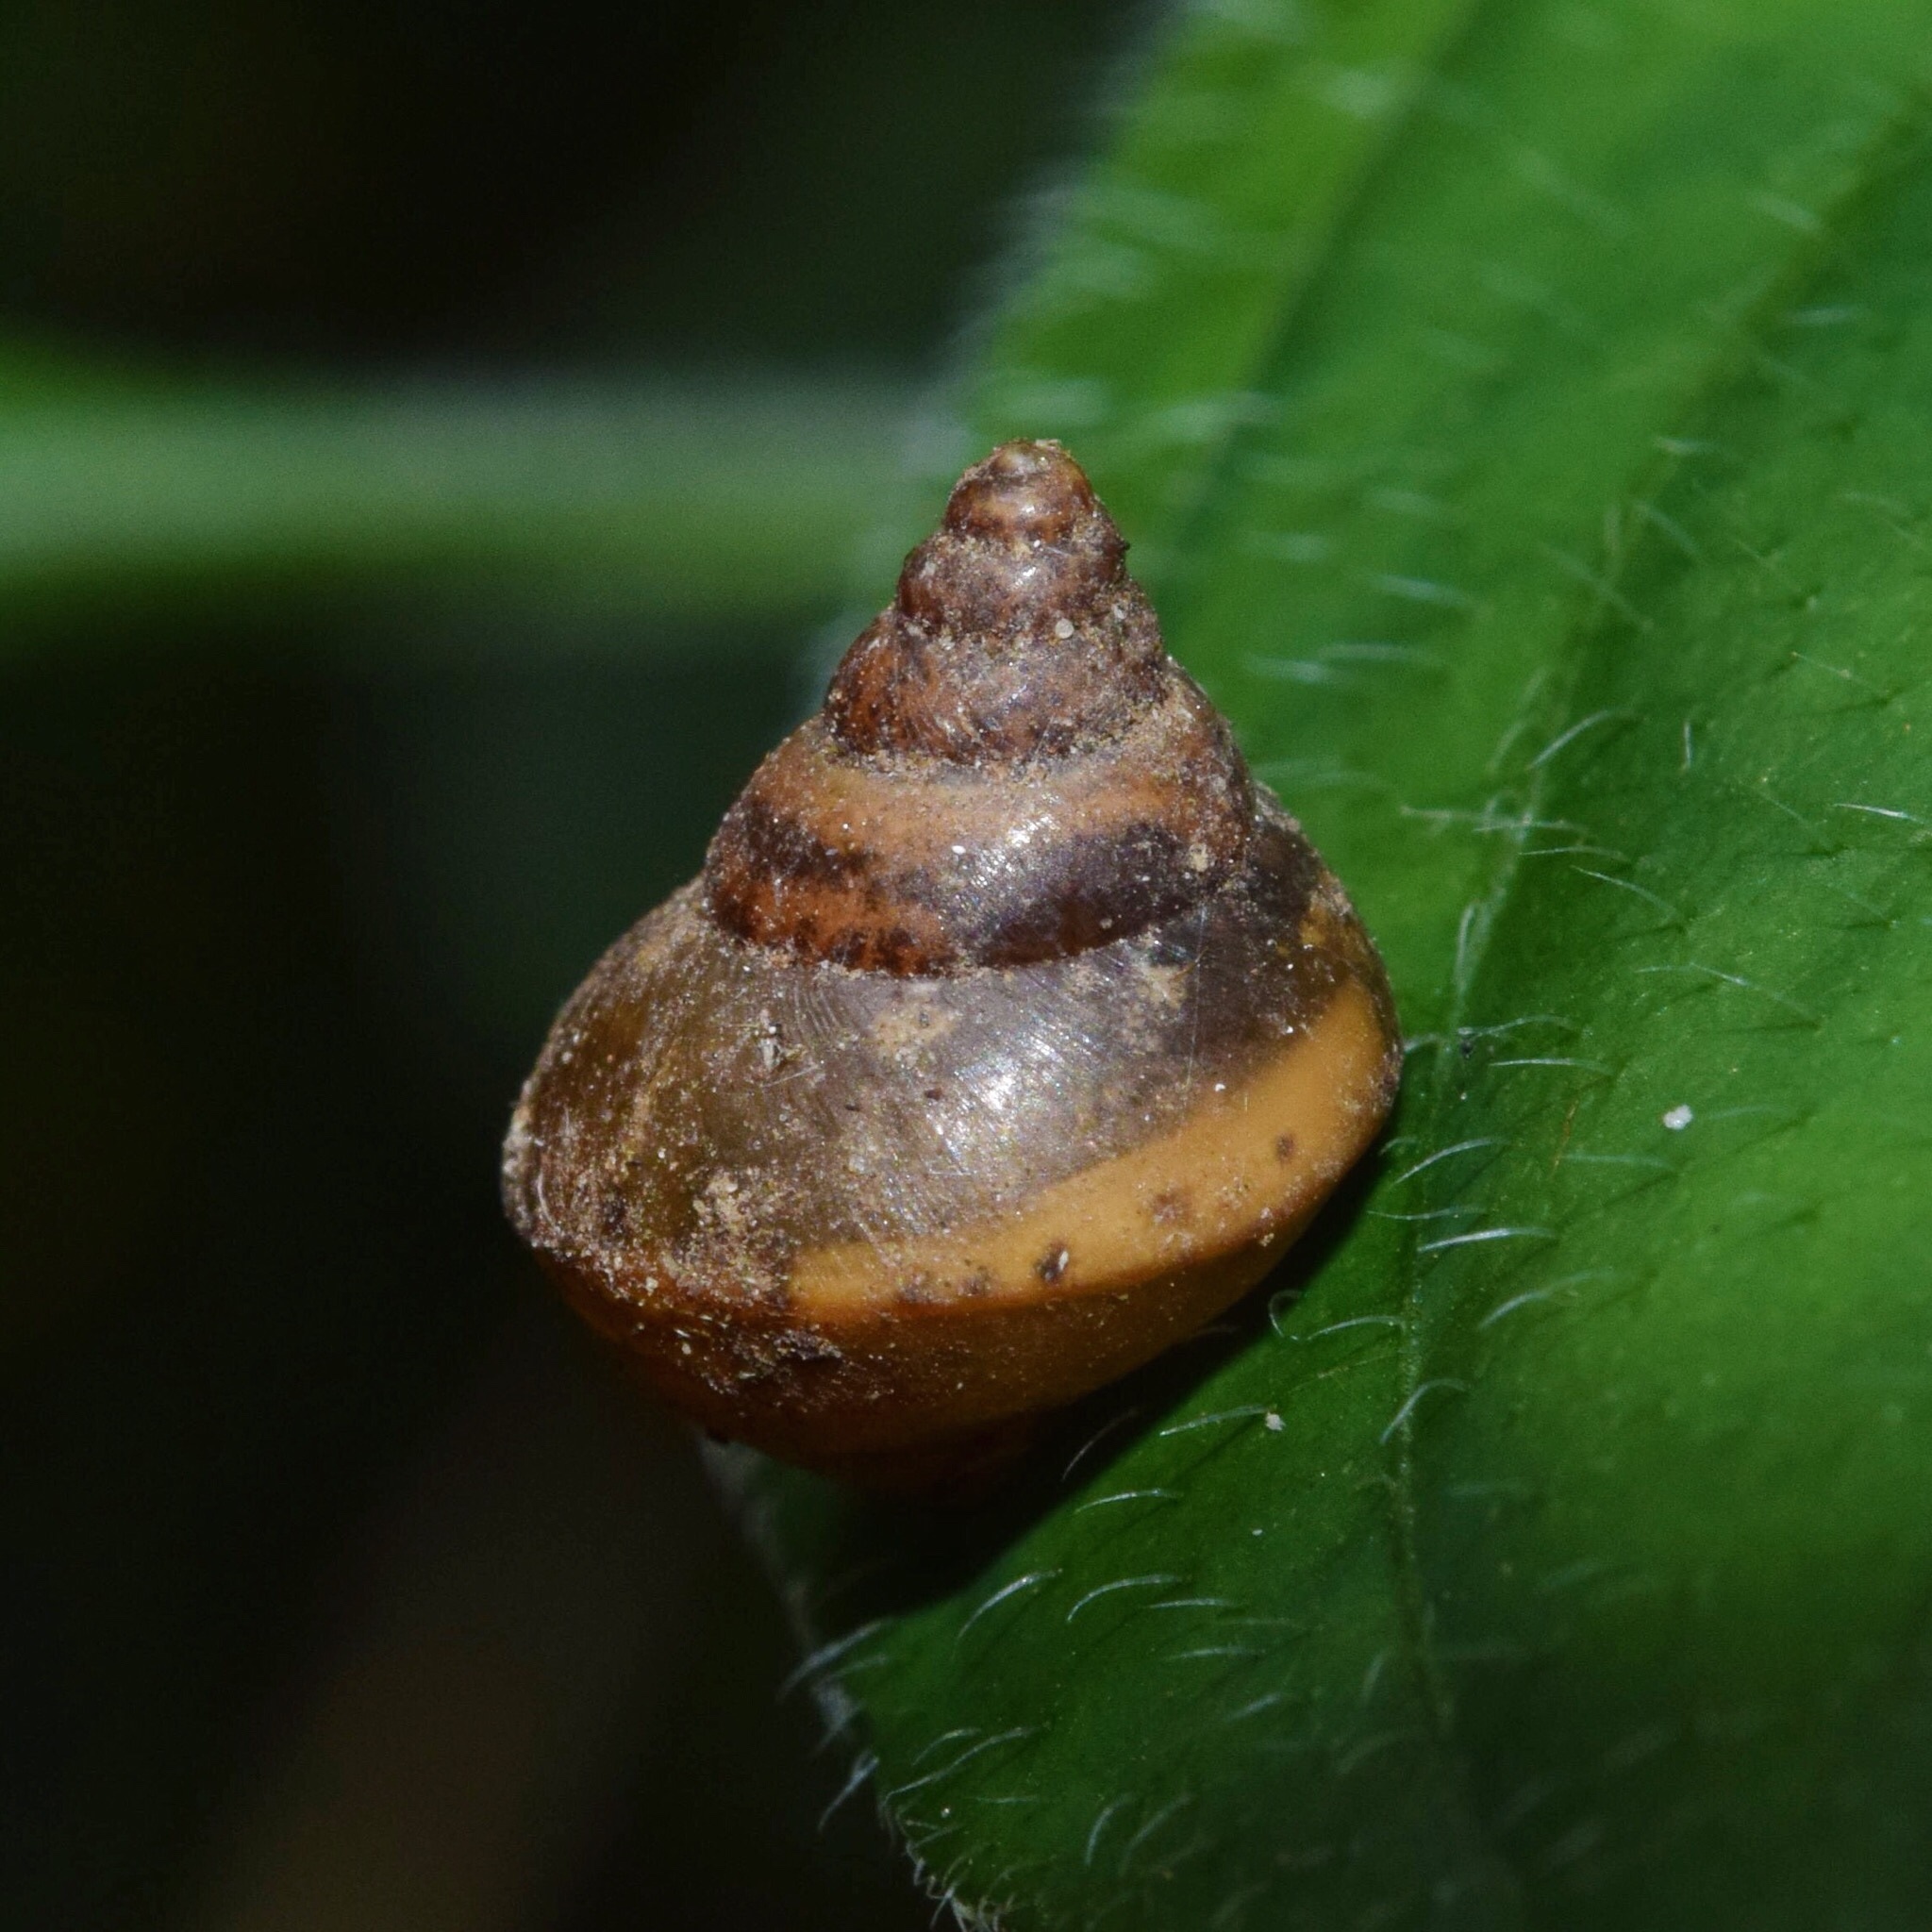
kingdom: Animalia
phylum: Mollusca
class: Gastropoda
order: Stylommatophora
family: Cerastidae
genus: Gittenedouardia
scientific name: Gittenedouardia natalensis
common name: Common bark snail
